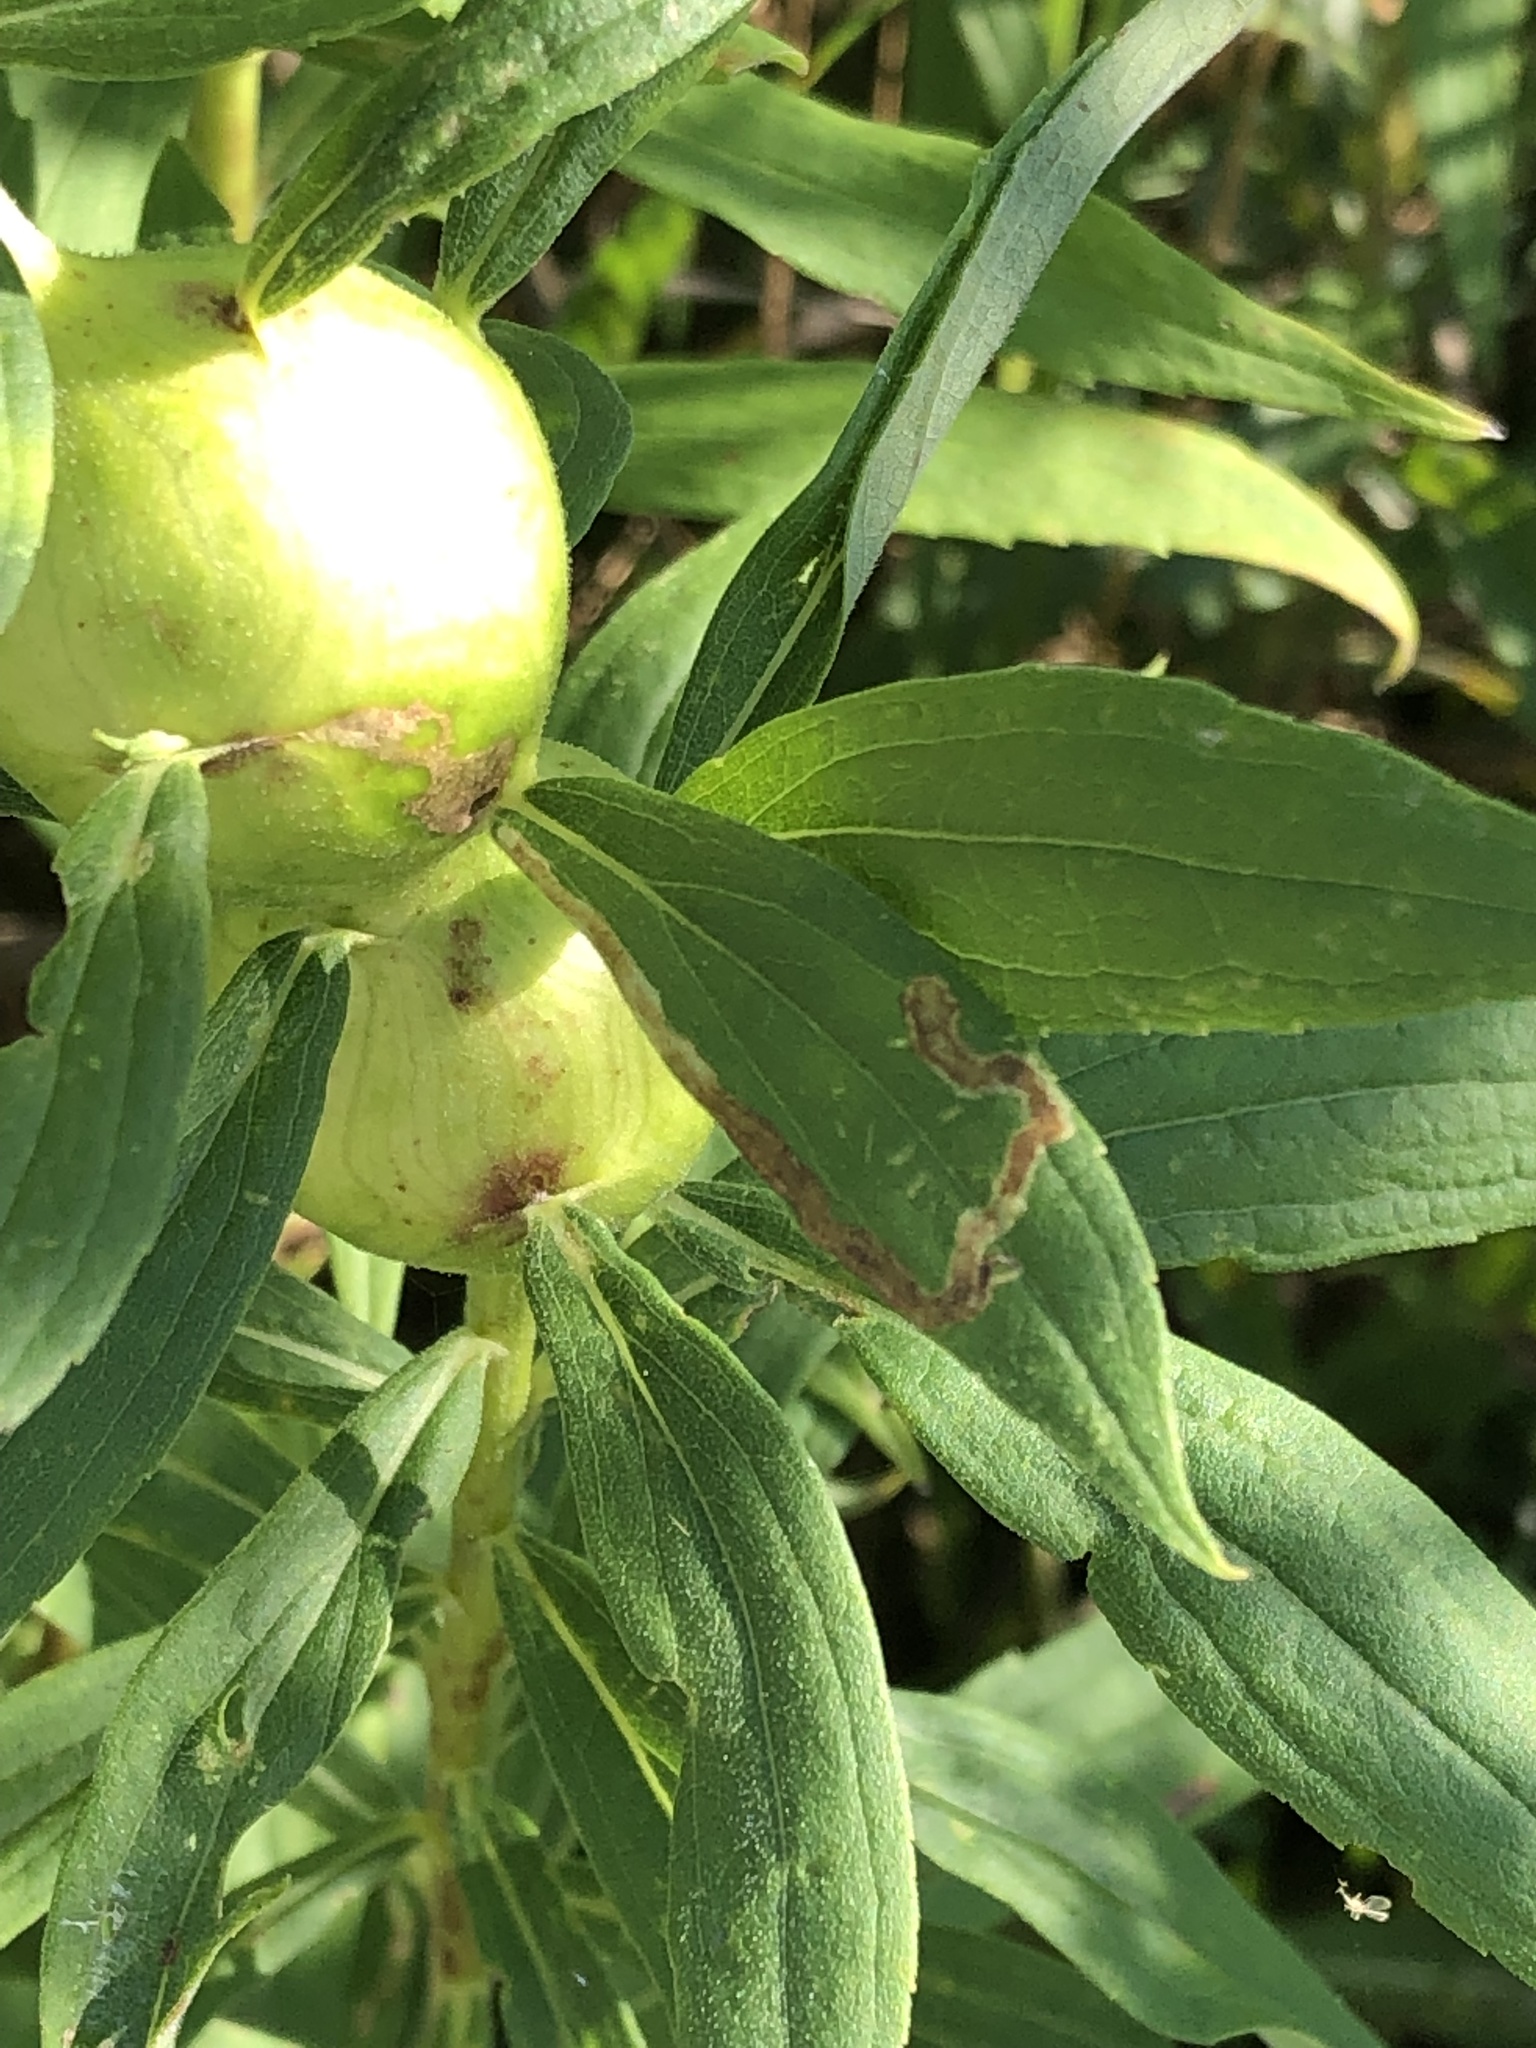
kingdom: Animalia
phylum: Arthropoda
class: Insecta
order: Diptera
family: Tephritidae
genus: Eurosta
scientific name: Eurosta solidaginis
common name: Goldenrod gall fly
